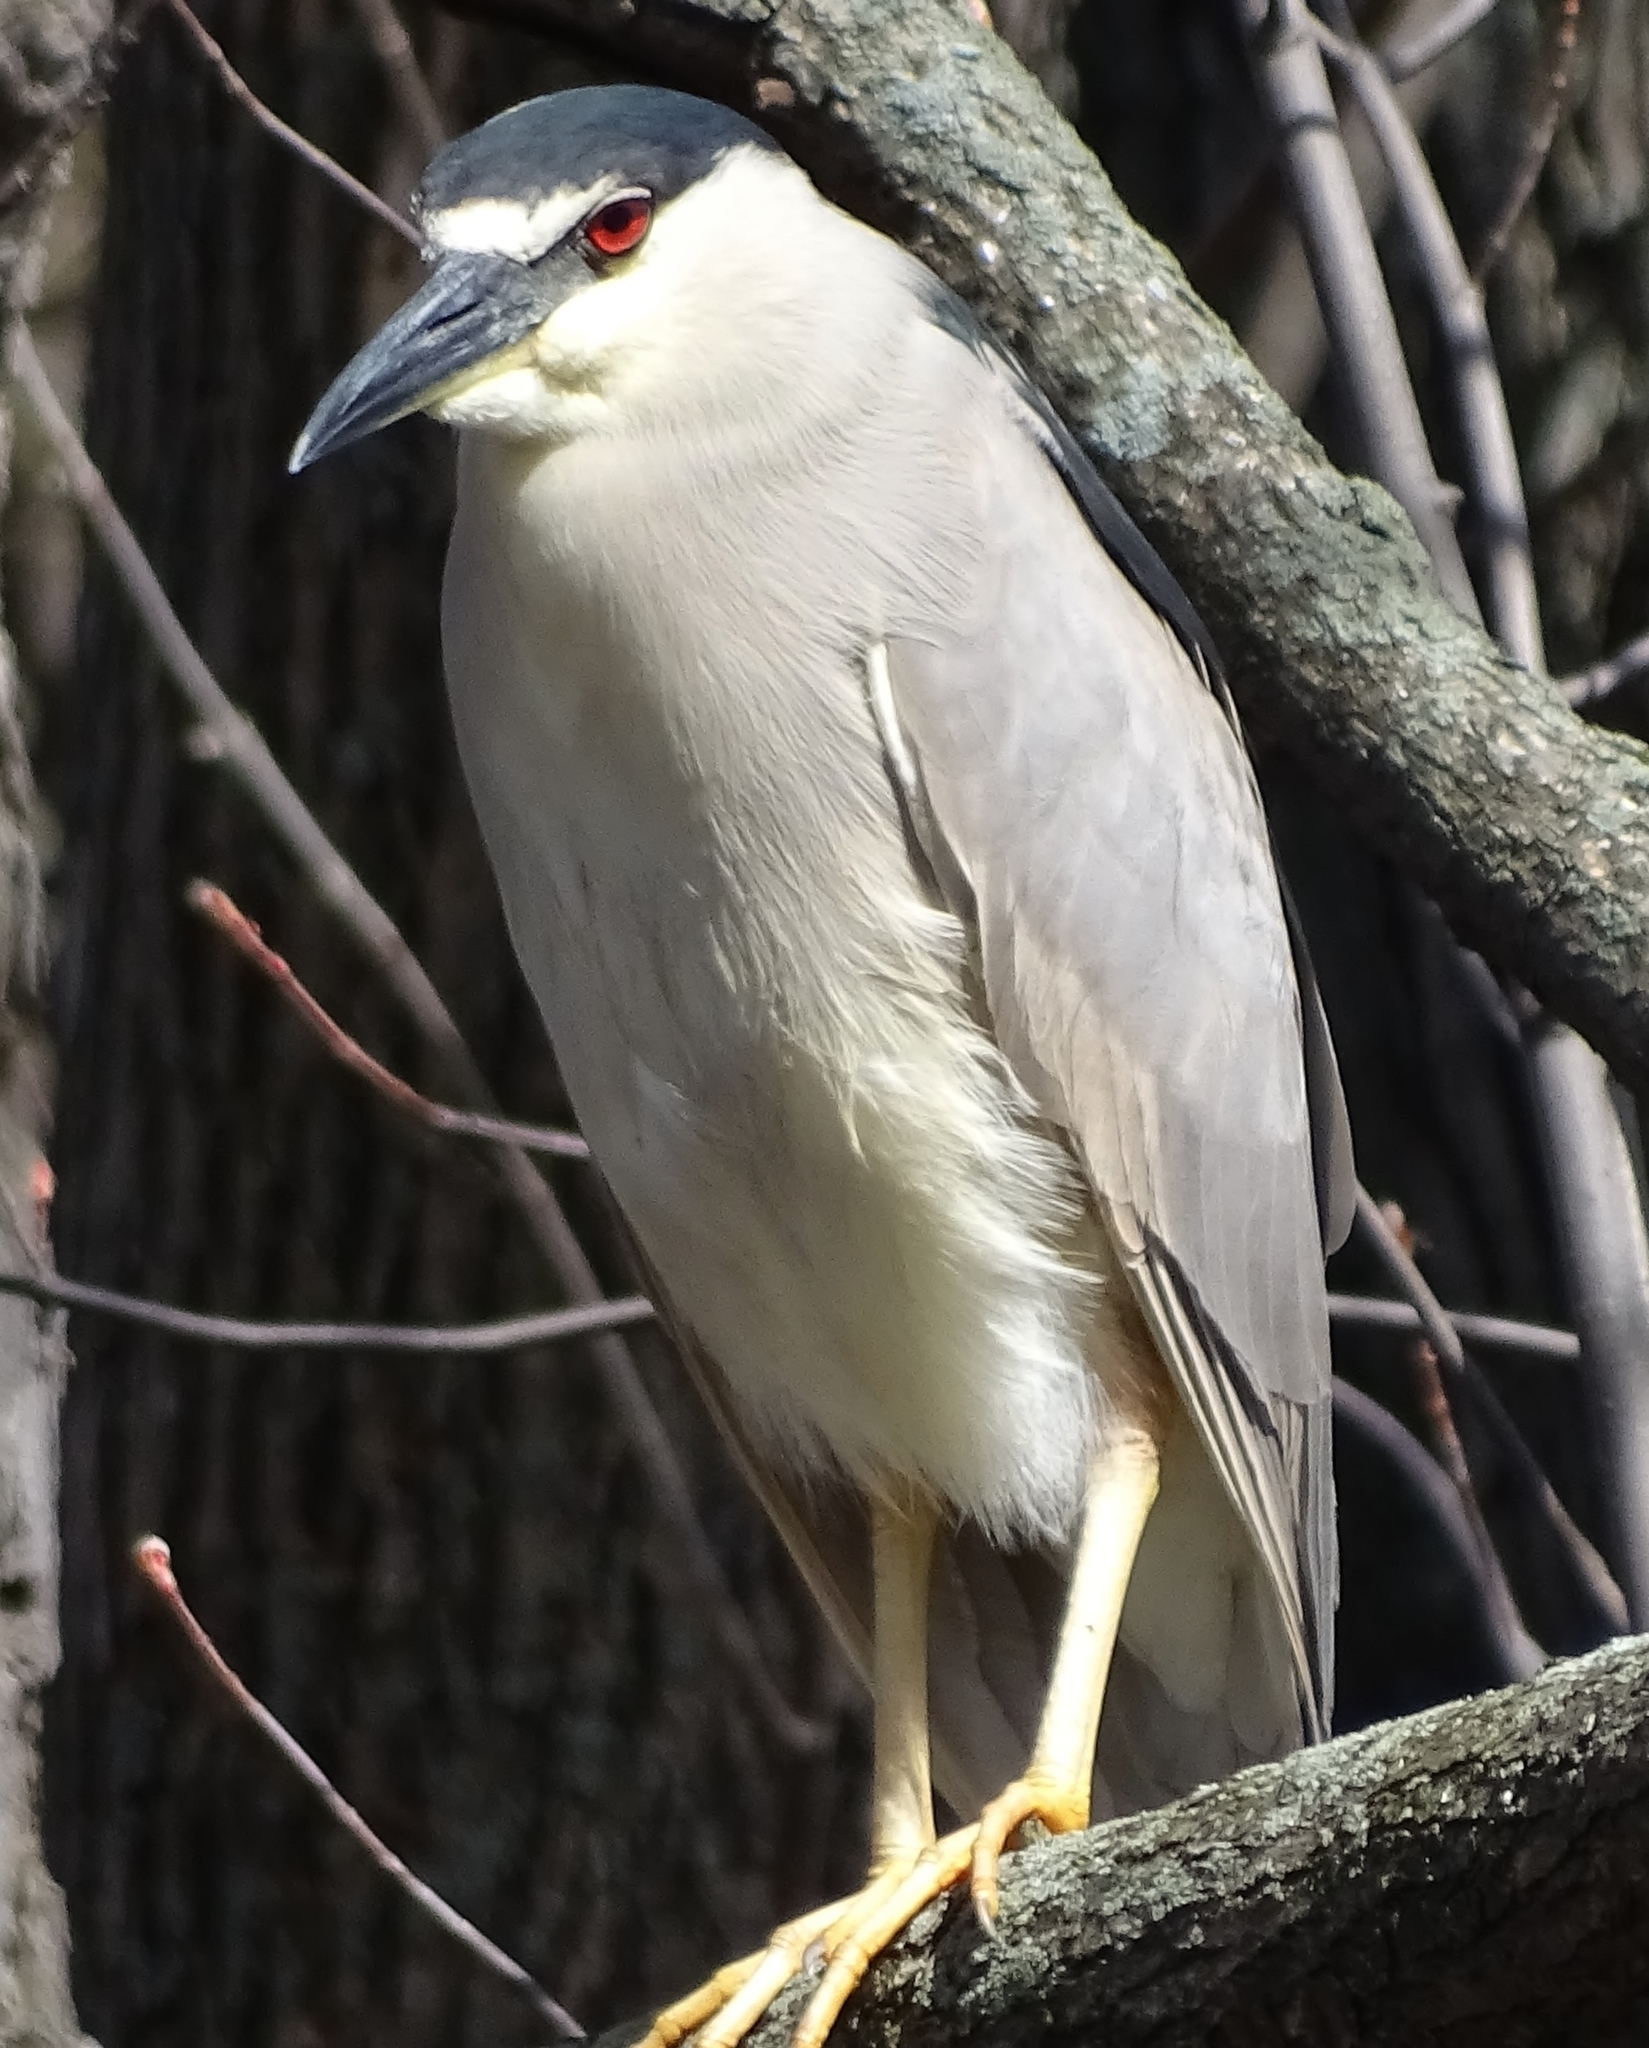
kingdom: Animalia
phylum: Chordata
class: Aves
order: Pelecaniformes
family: Ardeidae
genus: Nycticorax
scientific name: Nycticorax nycticorax
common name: Black-crowned night heron
